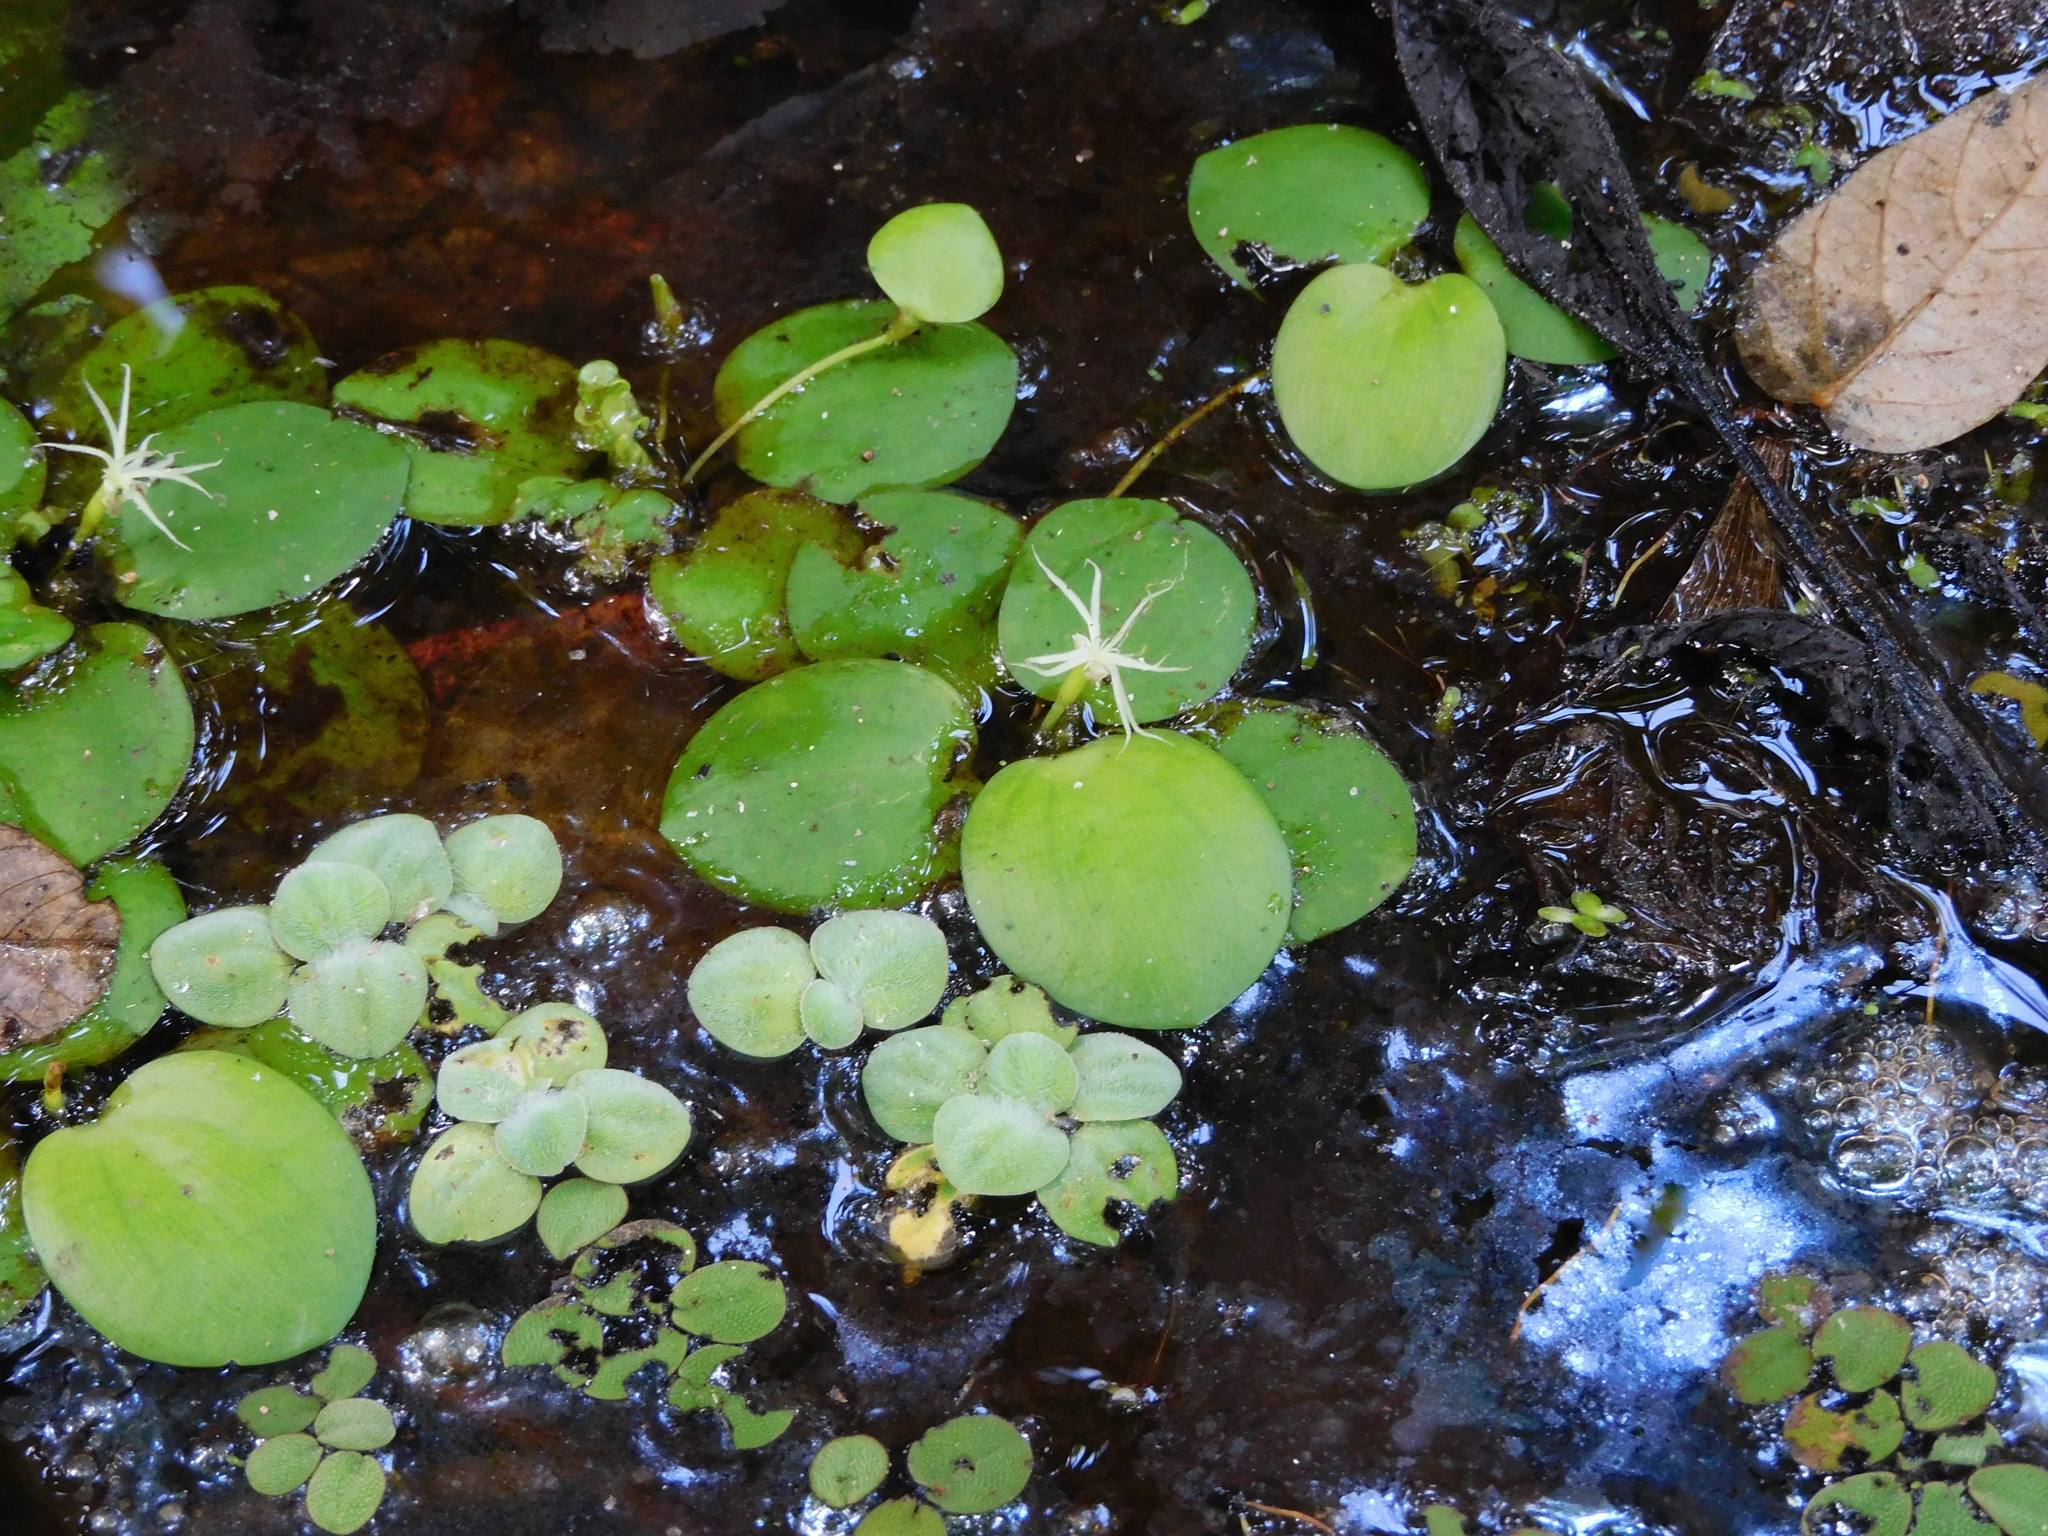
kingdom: Plantae
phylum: Tracheophyta
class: Liliopsida
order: Alismatales
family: Hydrocharitaceae
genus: Hydrocharis
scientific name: Hydrocharis laevigata
